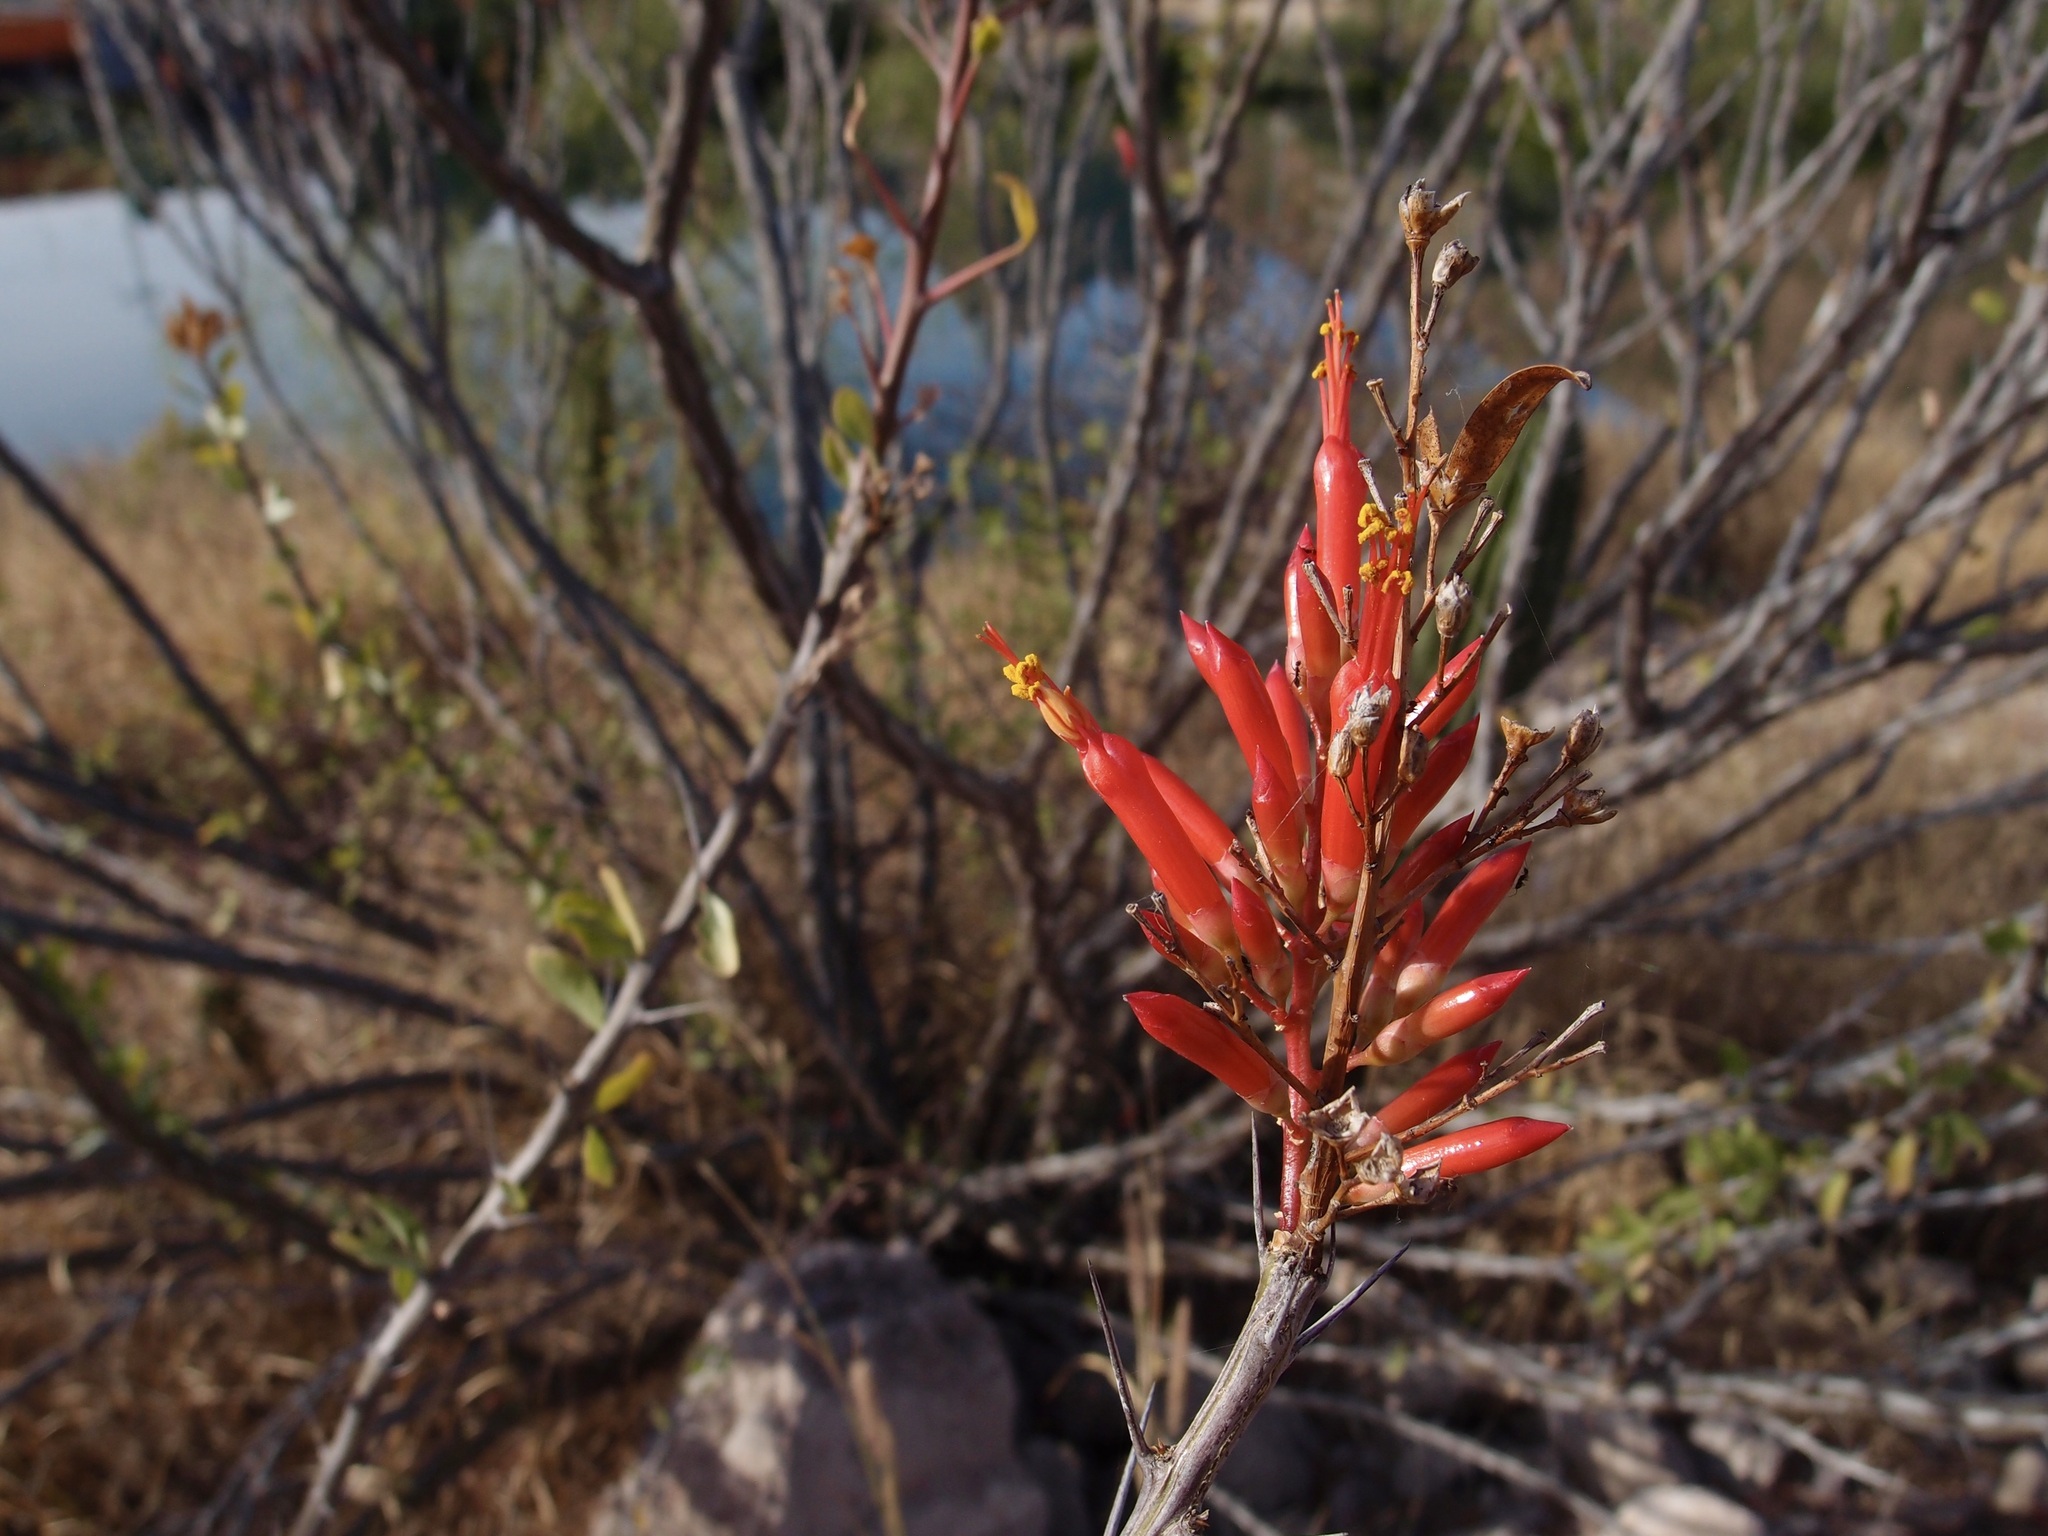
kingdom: Plantae
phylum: Tracheophyta
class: Magnoliopsida
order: Ericales
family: Fouquieriaceae
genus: Fouquieria
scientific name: Fouquieria diguetii
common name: Adam's tree
